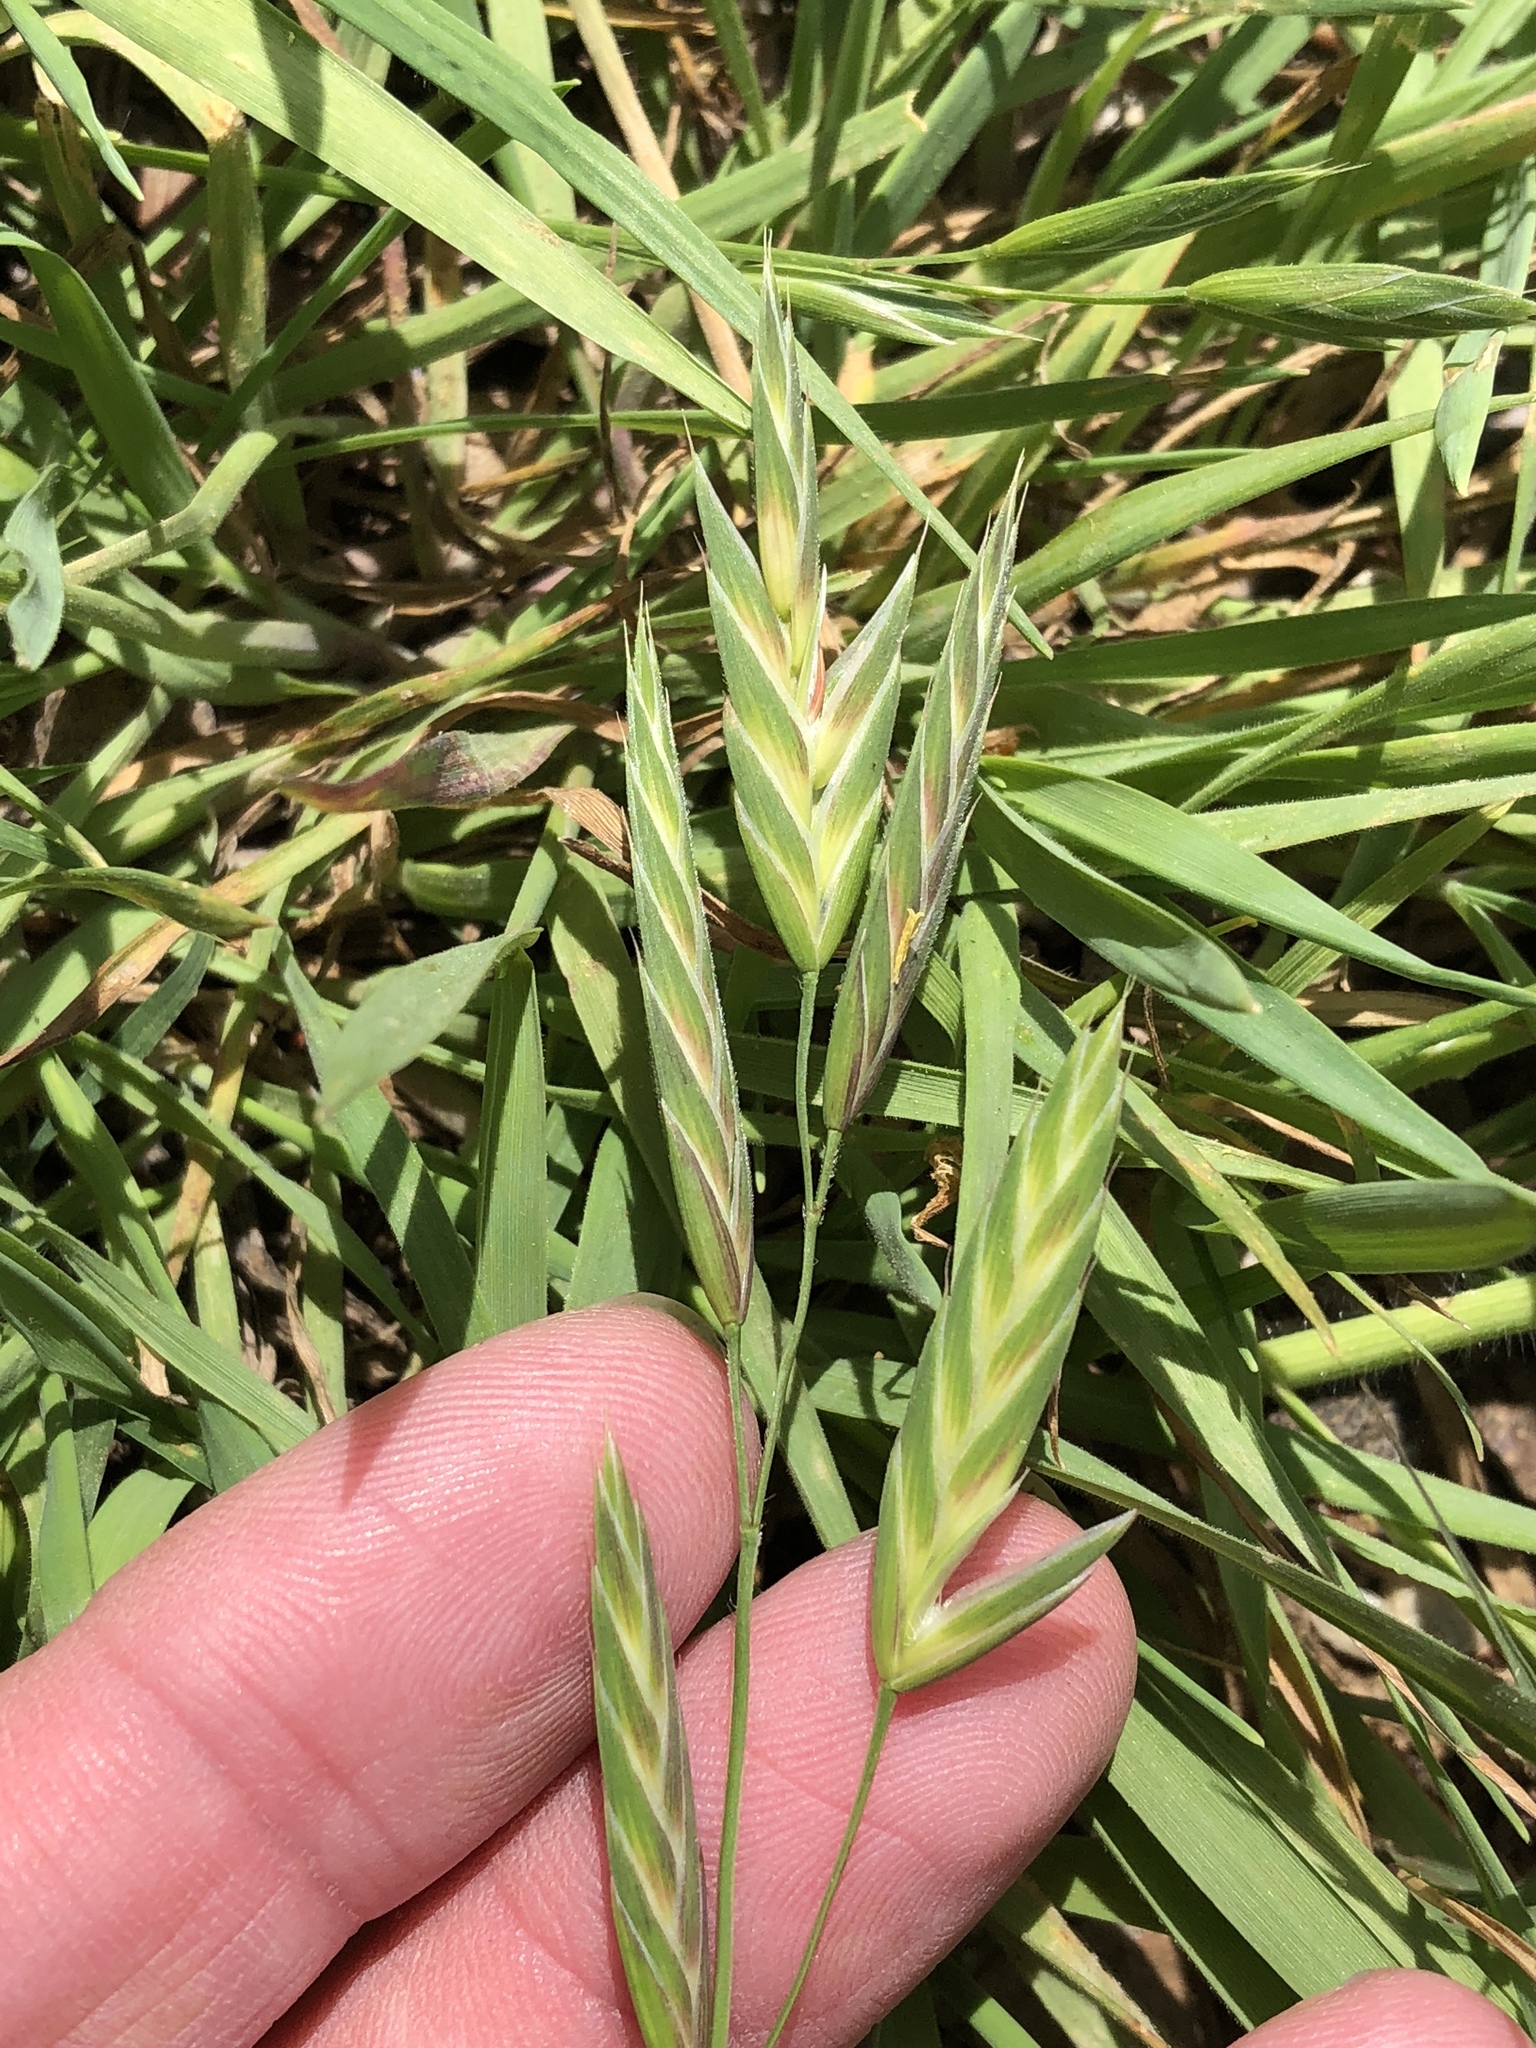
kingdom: Plantae
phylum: Tracheophyta
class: Liliopsida
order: Poales
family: Poaceae
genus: Bromus
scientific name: Bromus catharticus
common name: Rescuegrass
